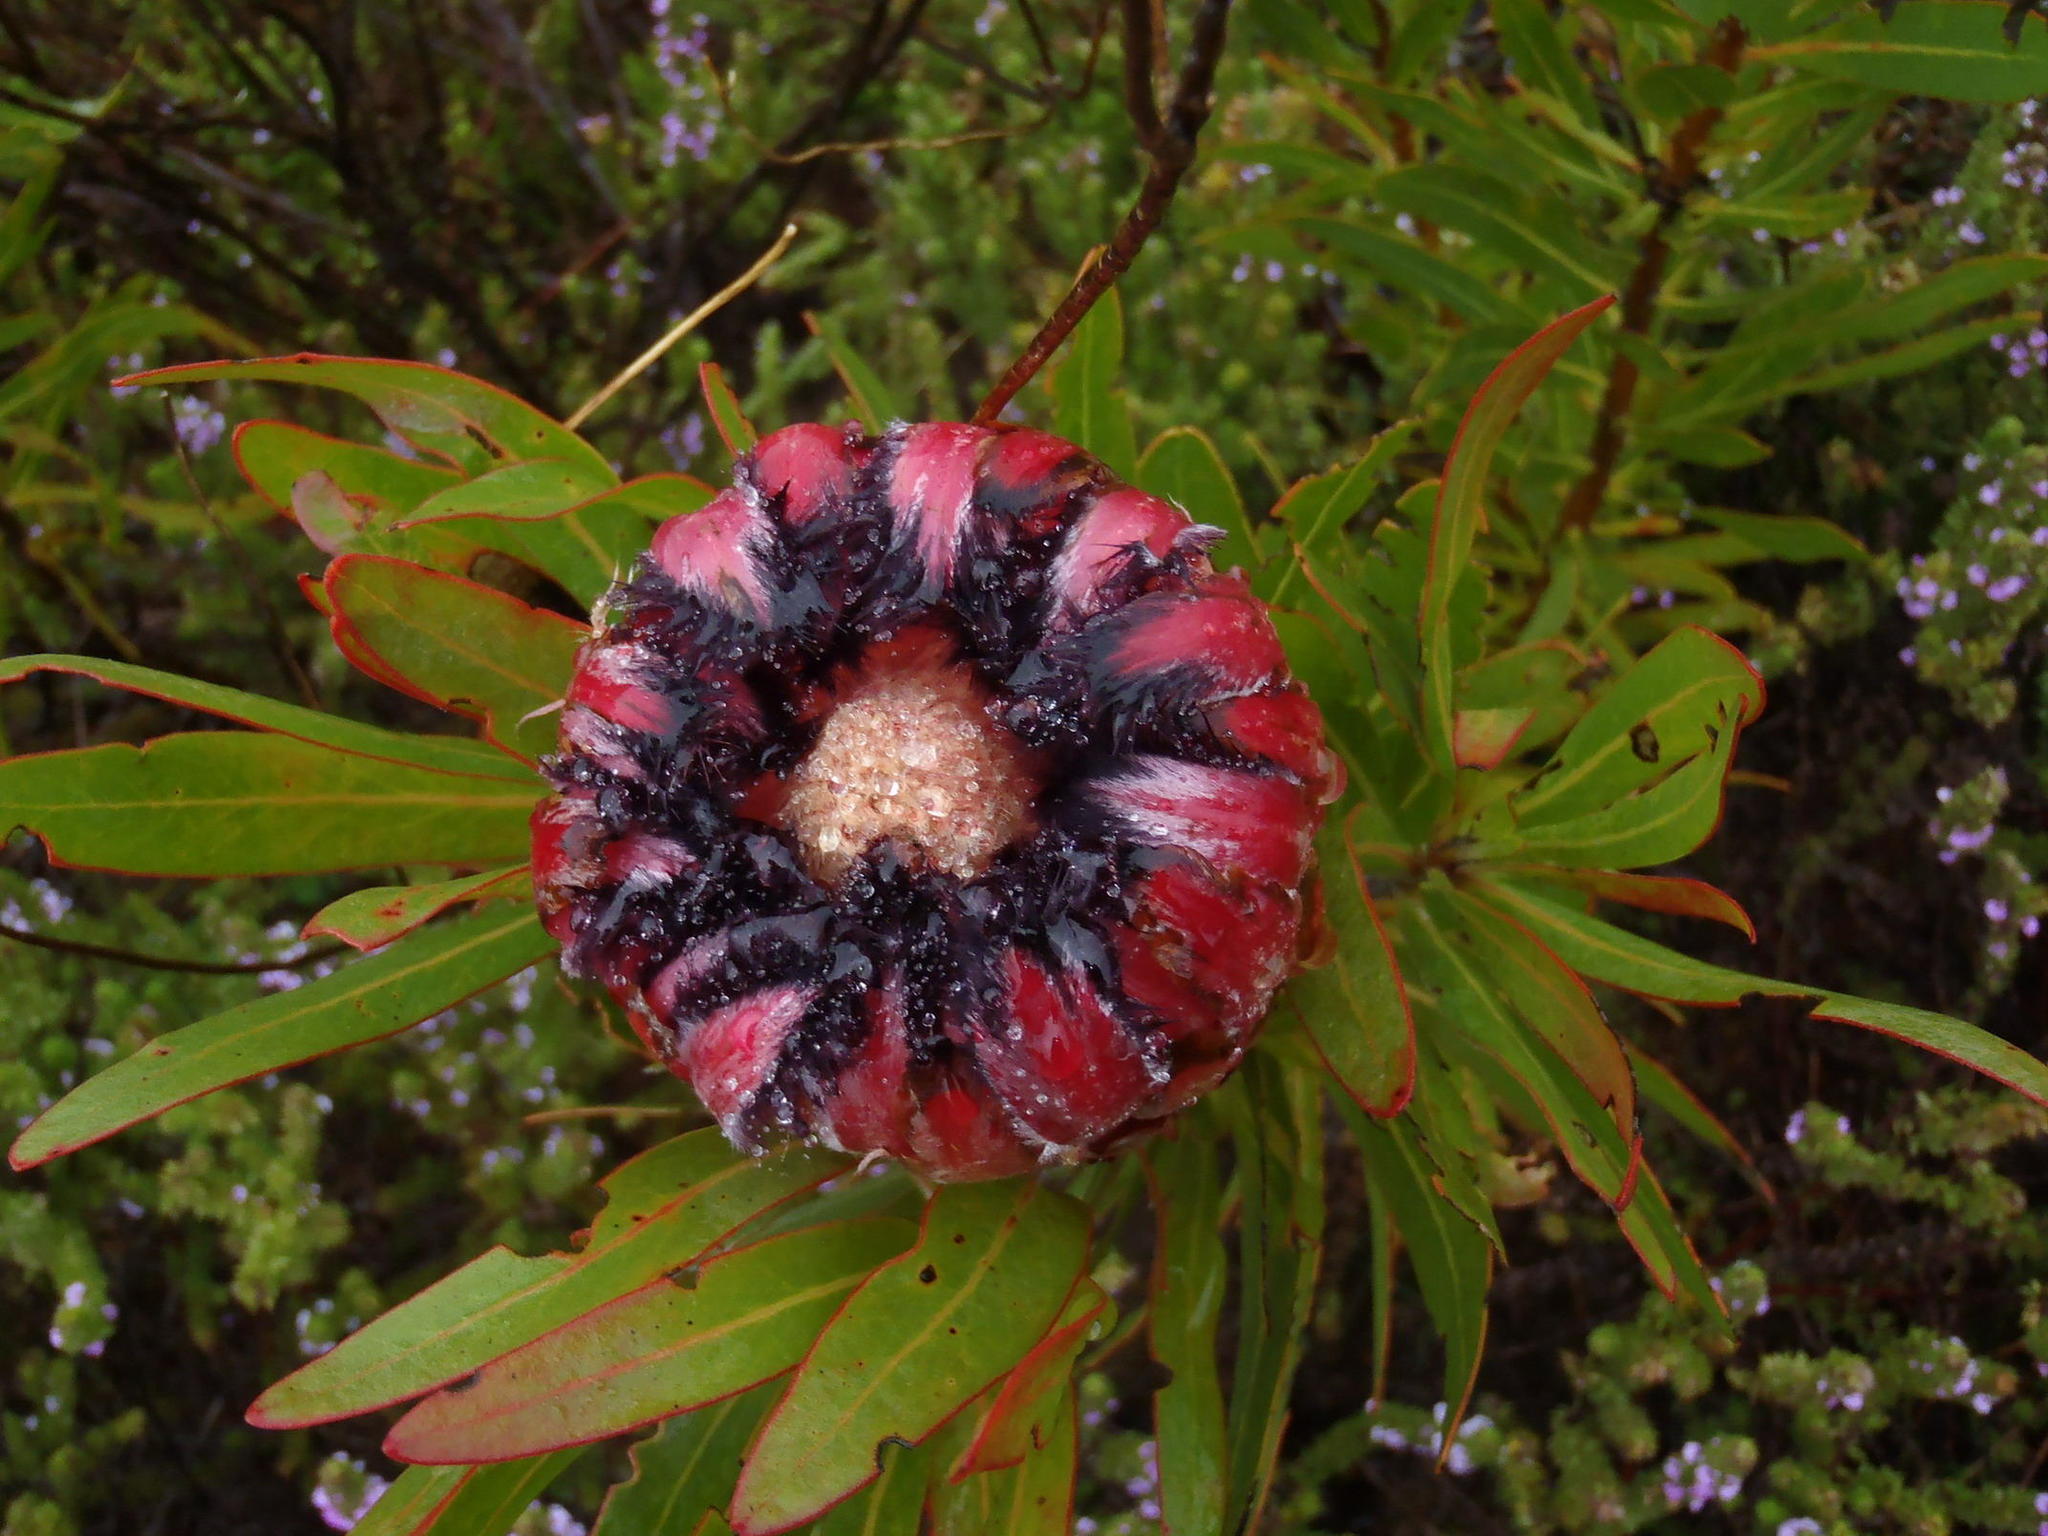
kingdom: Plantae
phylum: Tracheophyta
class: Magnoliopsida
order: Proteales
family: Proteaceae
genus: Protea
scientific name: Protea neriifolia
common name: Blue sugarbush
